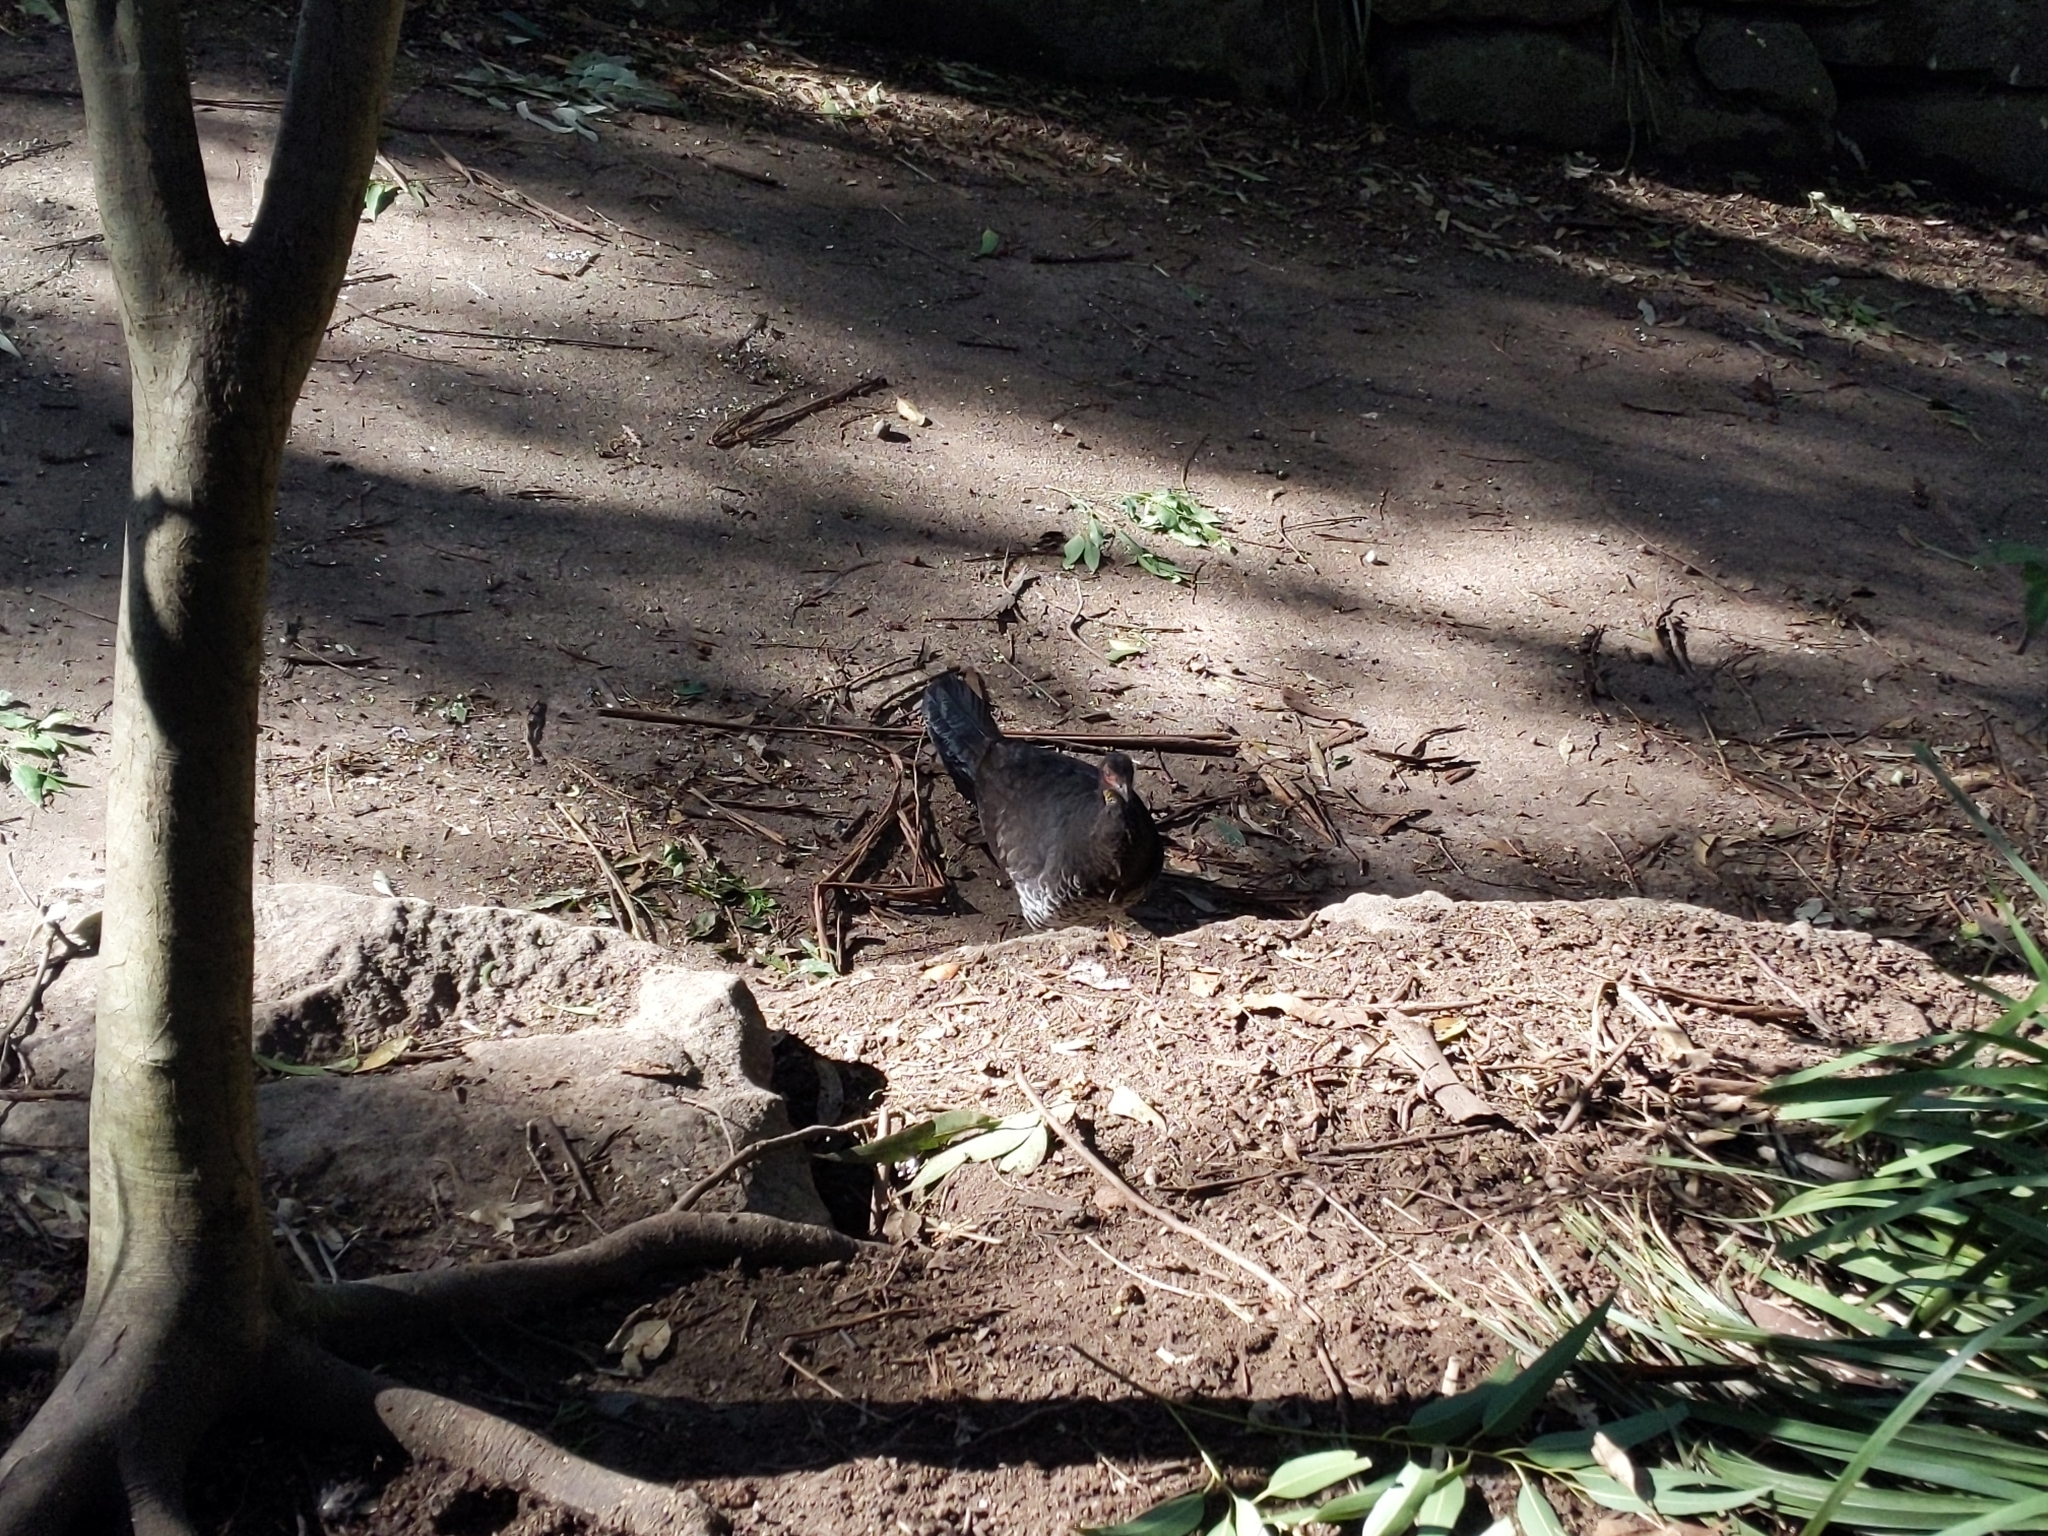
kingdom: Animalia
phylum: Chordata
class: Aves
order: Galliformes
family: Megapodiidae
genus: Alectura
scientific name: Alectura lathami
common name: Australian brushturkey
